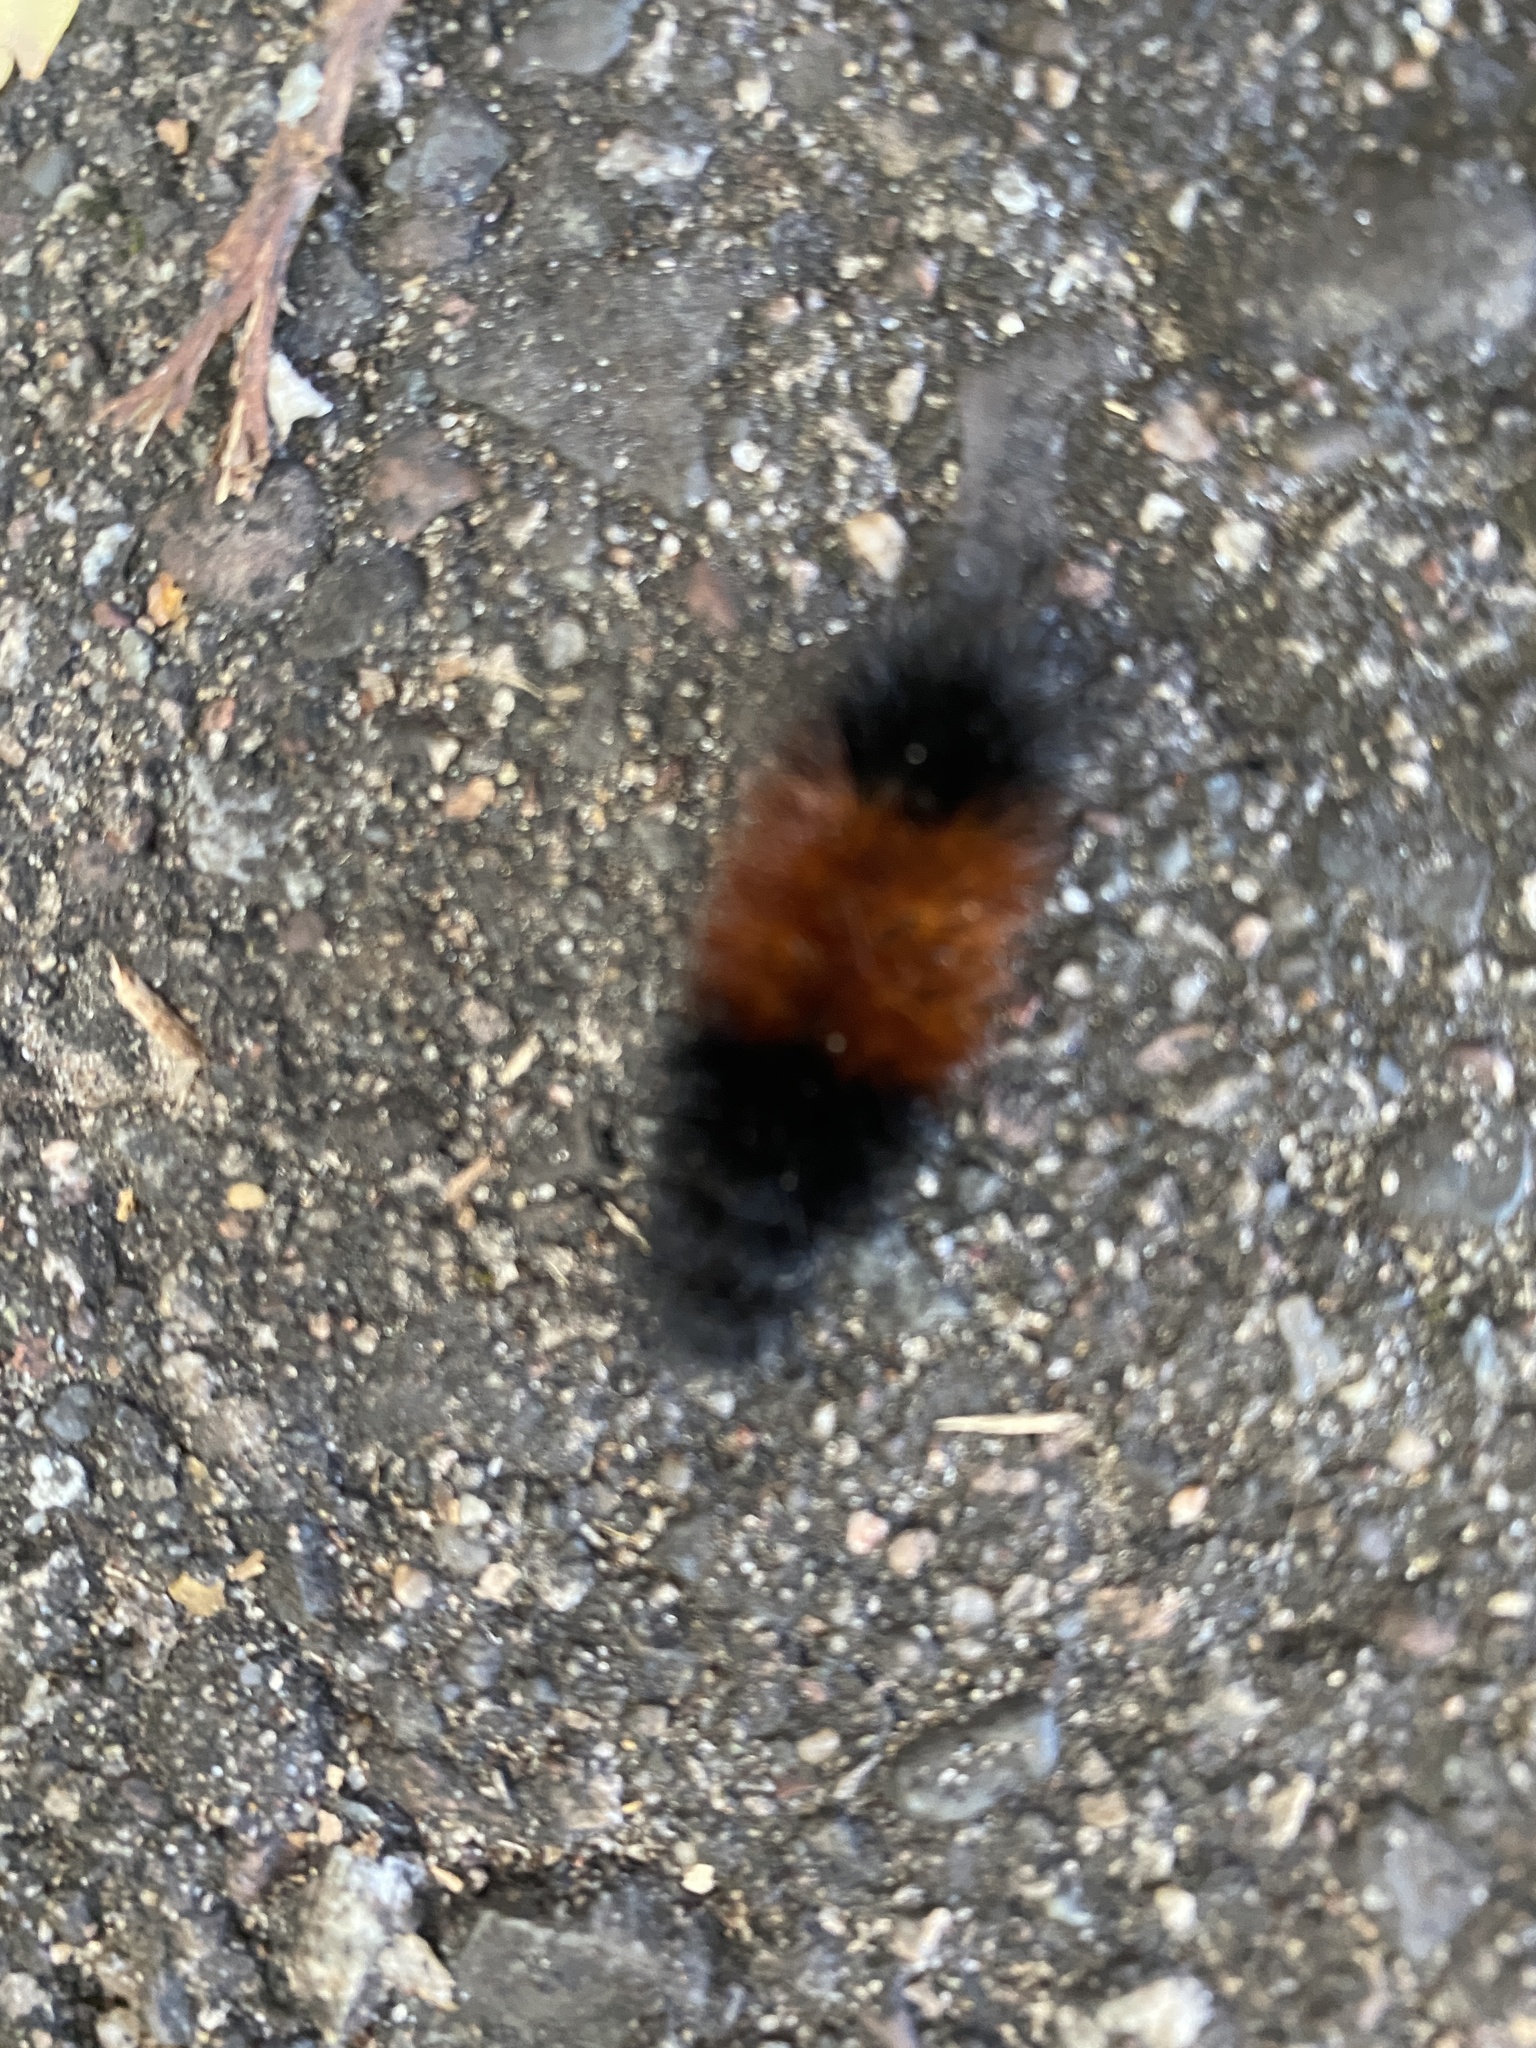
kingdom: Animalia
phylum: Arthropoda
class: Insecta
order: Lepidoptera
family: Erebidae
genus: Pyrrharctia
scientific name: Pyrrharctia isabella
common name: Isabella tiger moth
